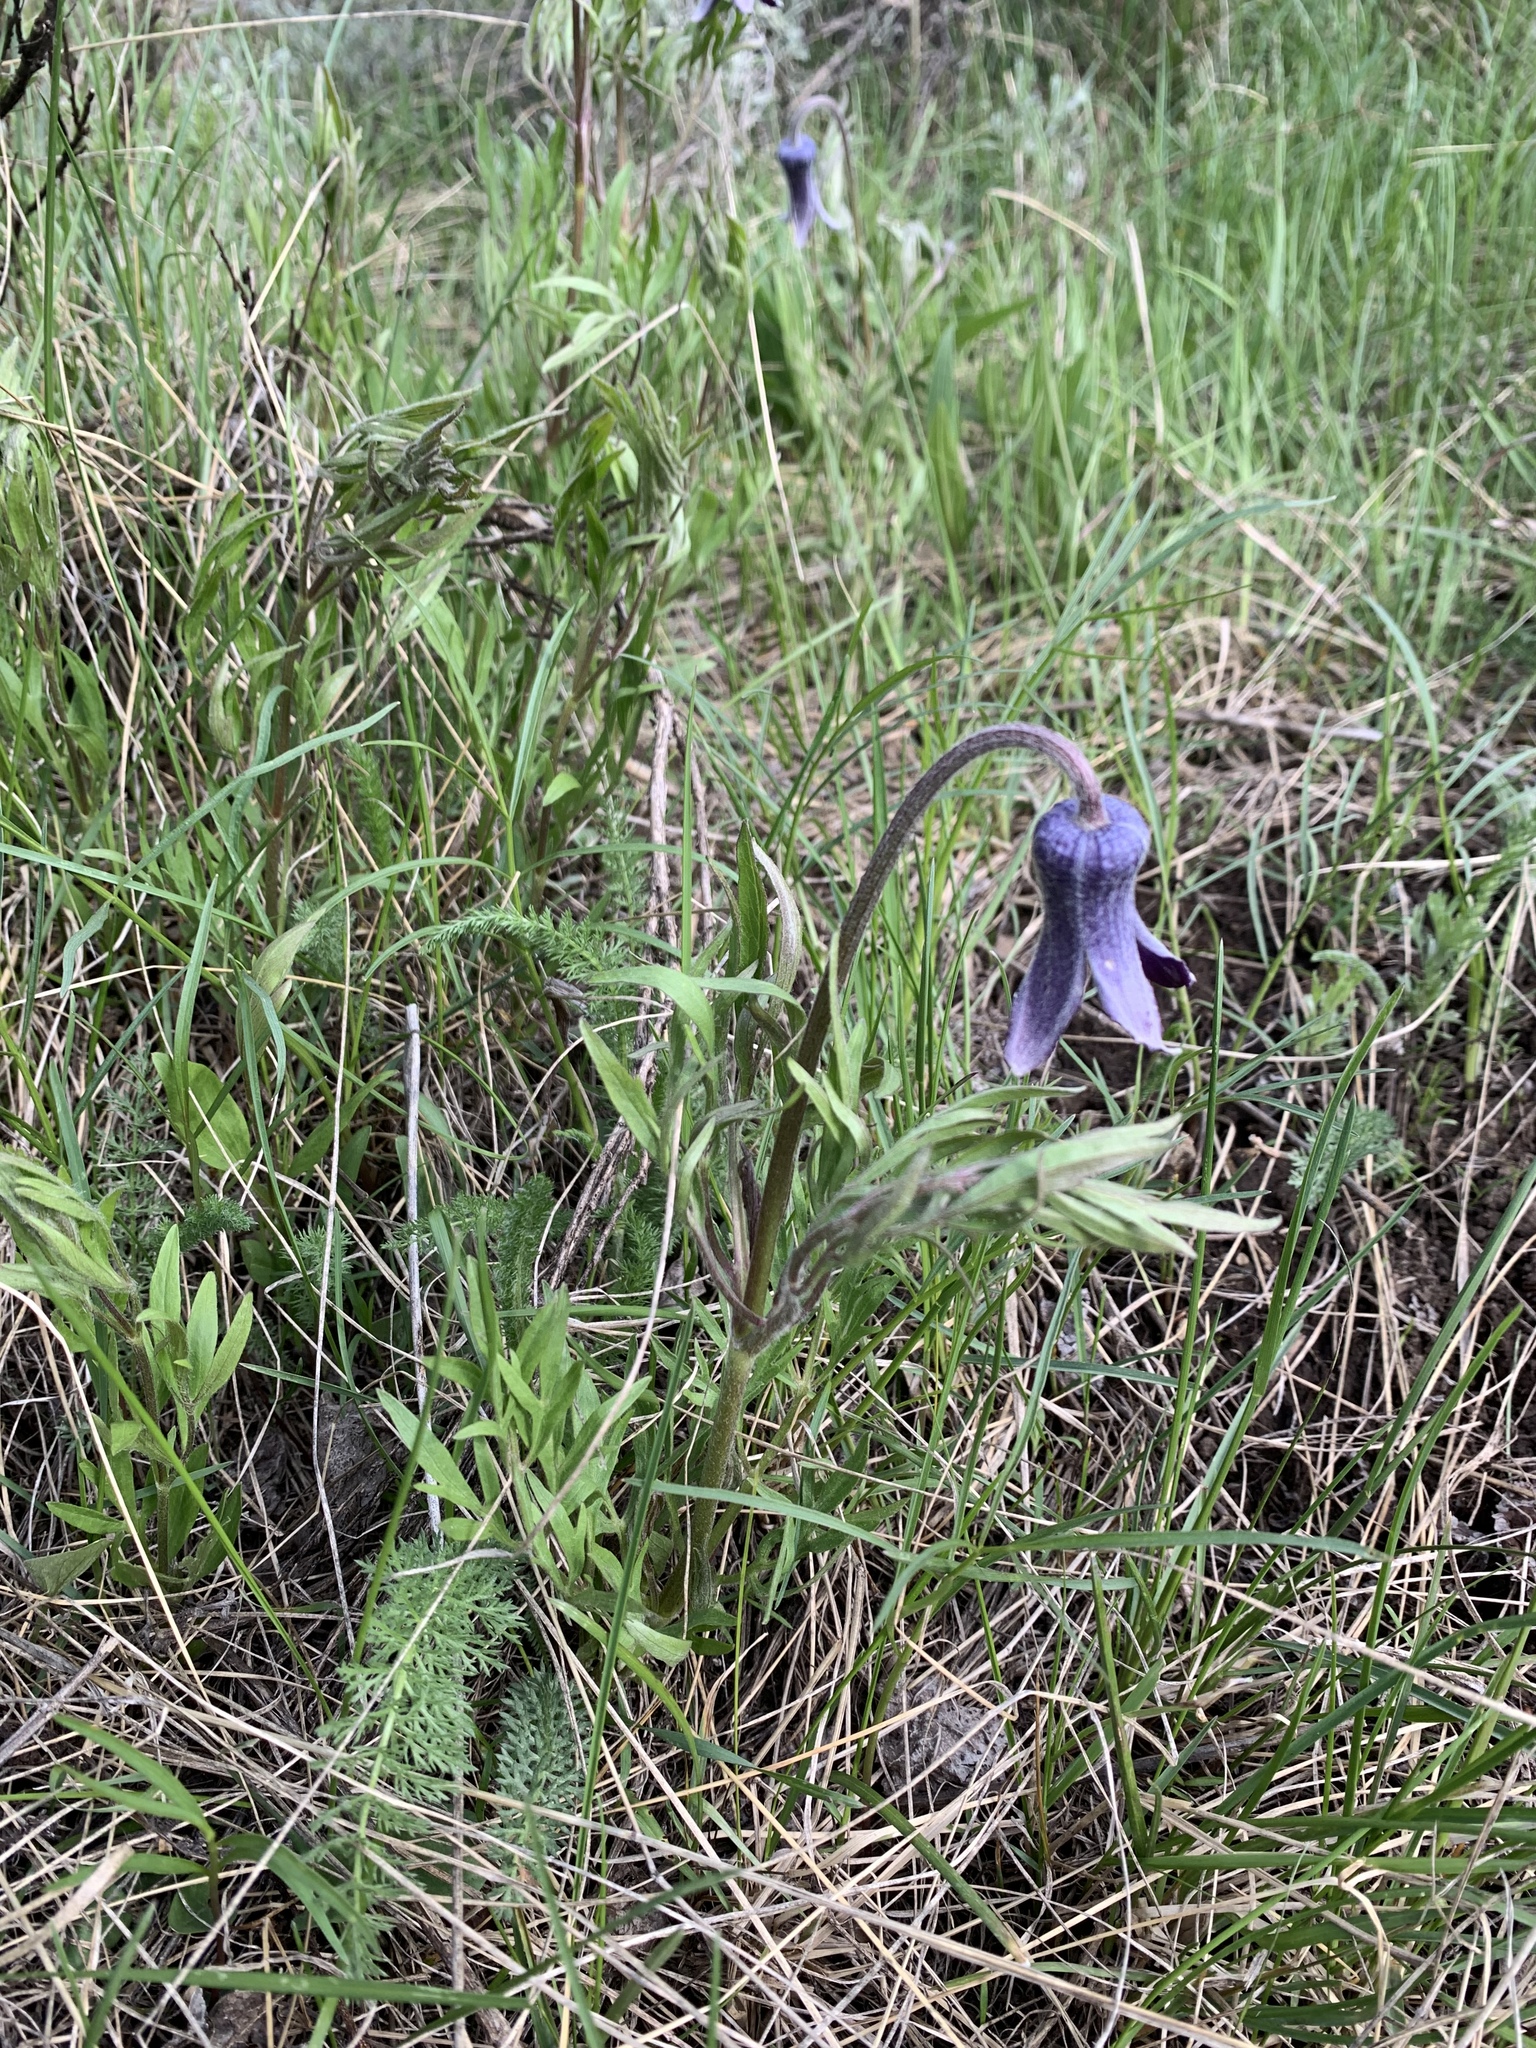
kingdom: Plantae
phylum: Tracheophyta
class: Magnoliopsida
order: Ranunculales
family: Ranunculaceae
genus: Clematis
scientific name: Clematis hirsutissima
